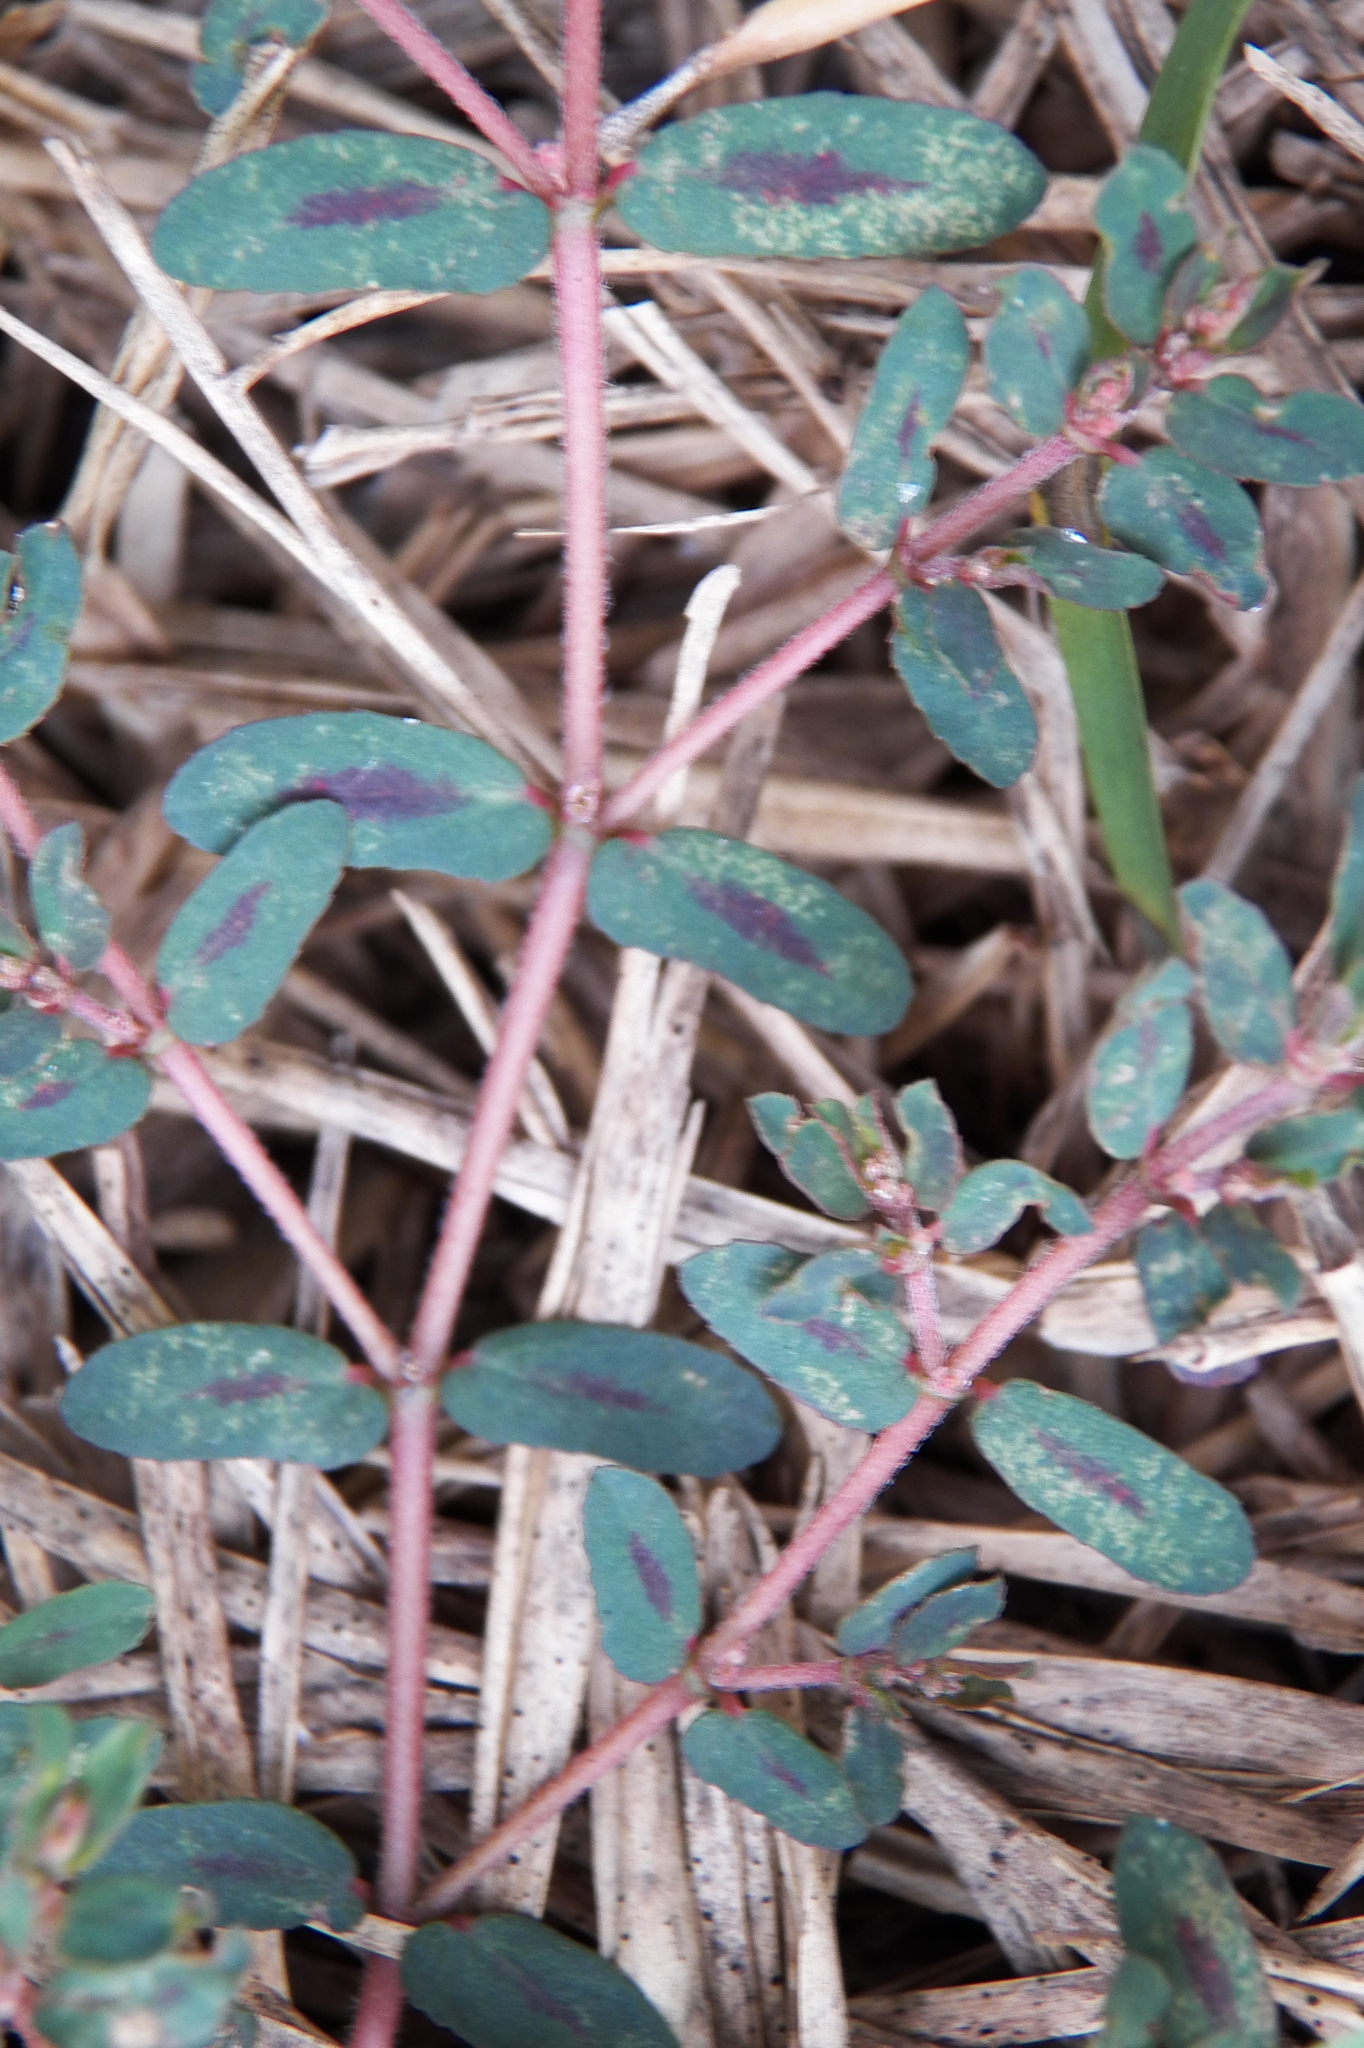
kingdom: Plantae
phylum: Tracheophyta
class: Magnoliopsida
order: Malpighiales
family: Euphorbiaceae
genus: Euphorbia
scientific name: Euphorbia maculata
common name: Spotted spurge
